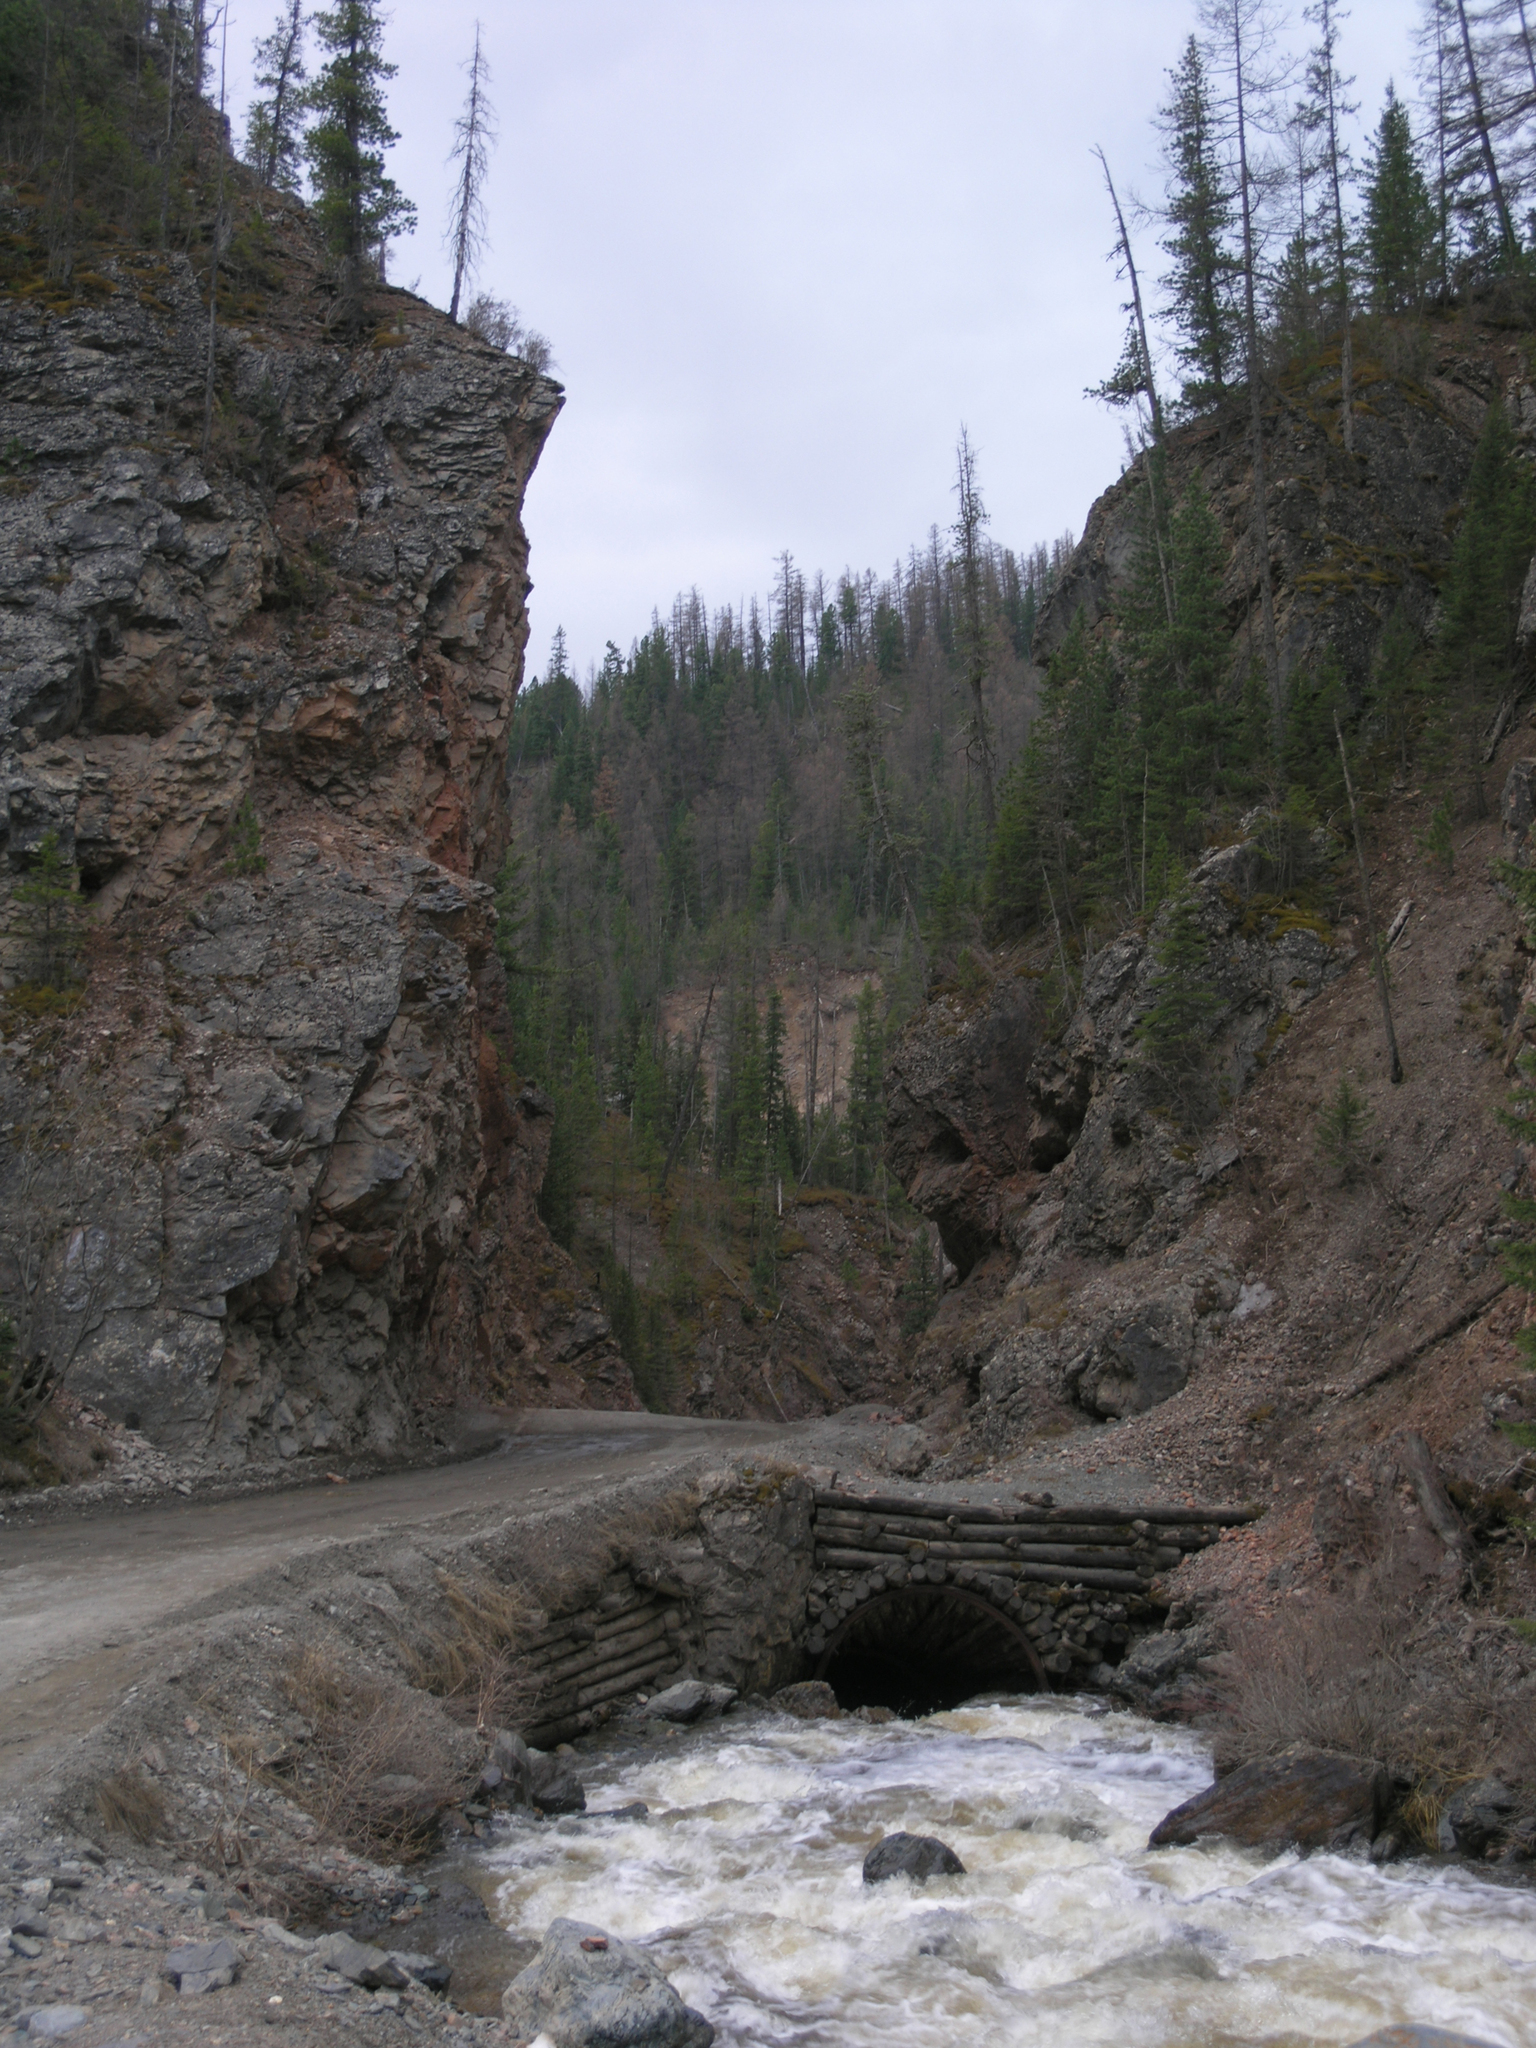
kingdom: Plantae
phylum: Tracheophyta
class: Pinopsida
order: Pinales
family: Pinaceae
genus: Picea
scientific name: Picea obovata
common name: Siberian spruce
